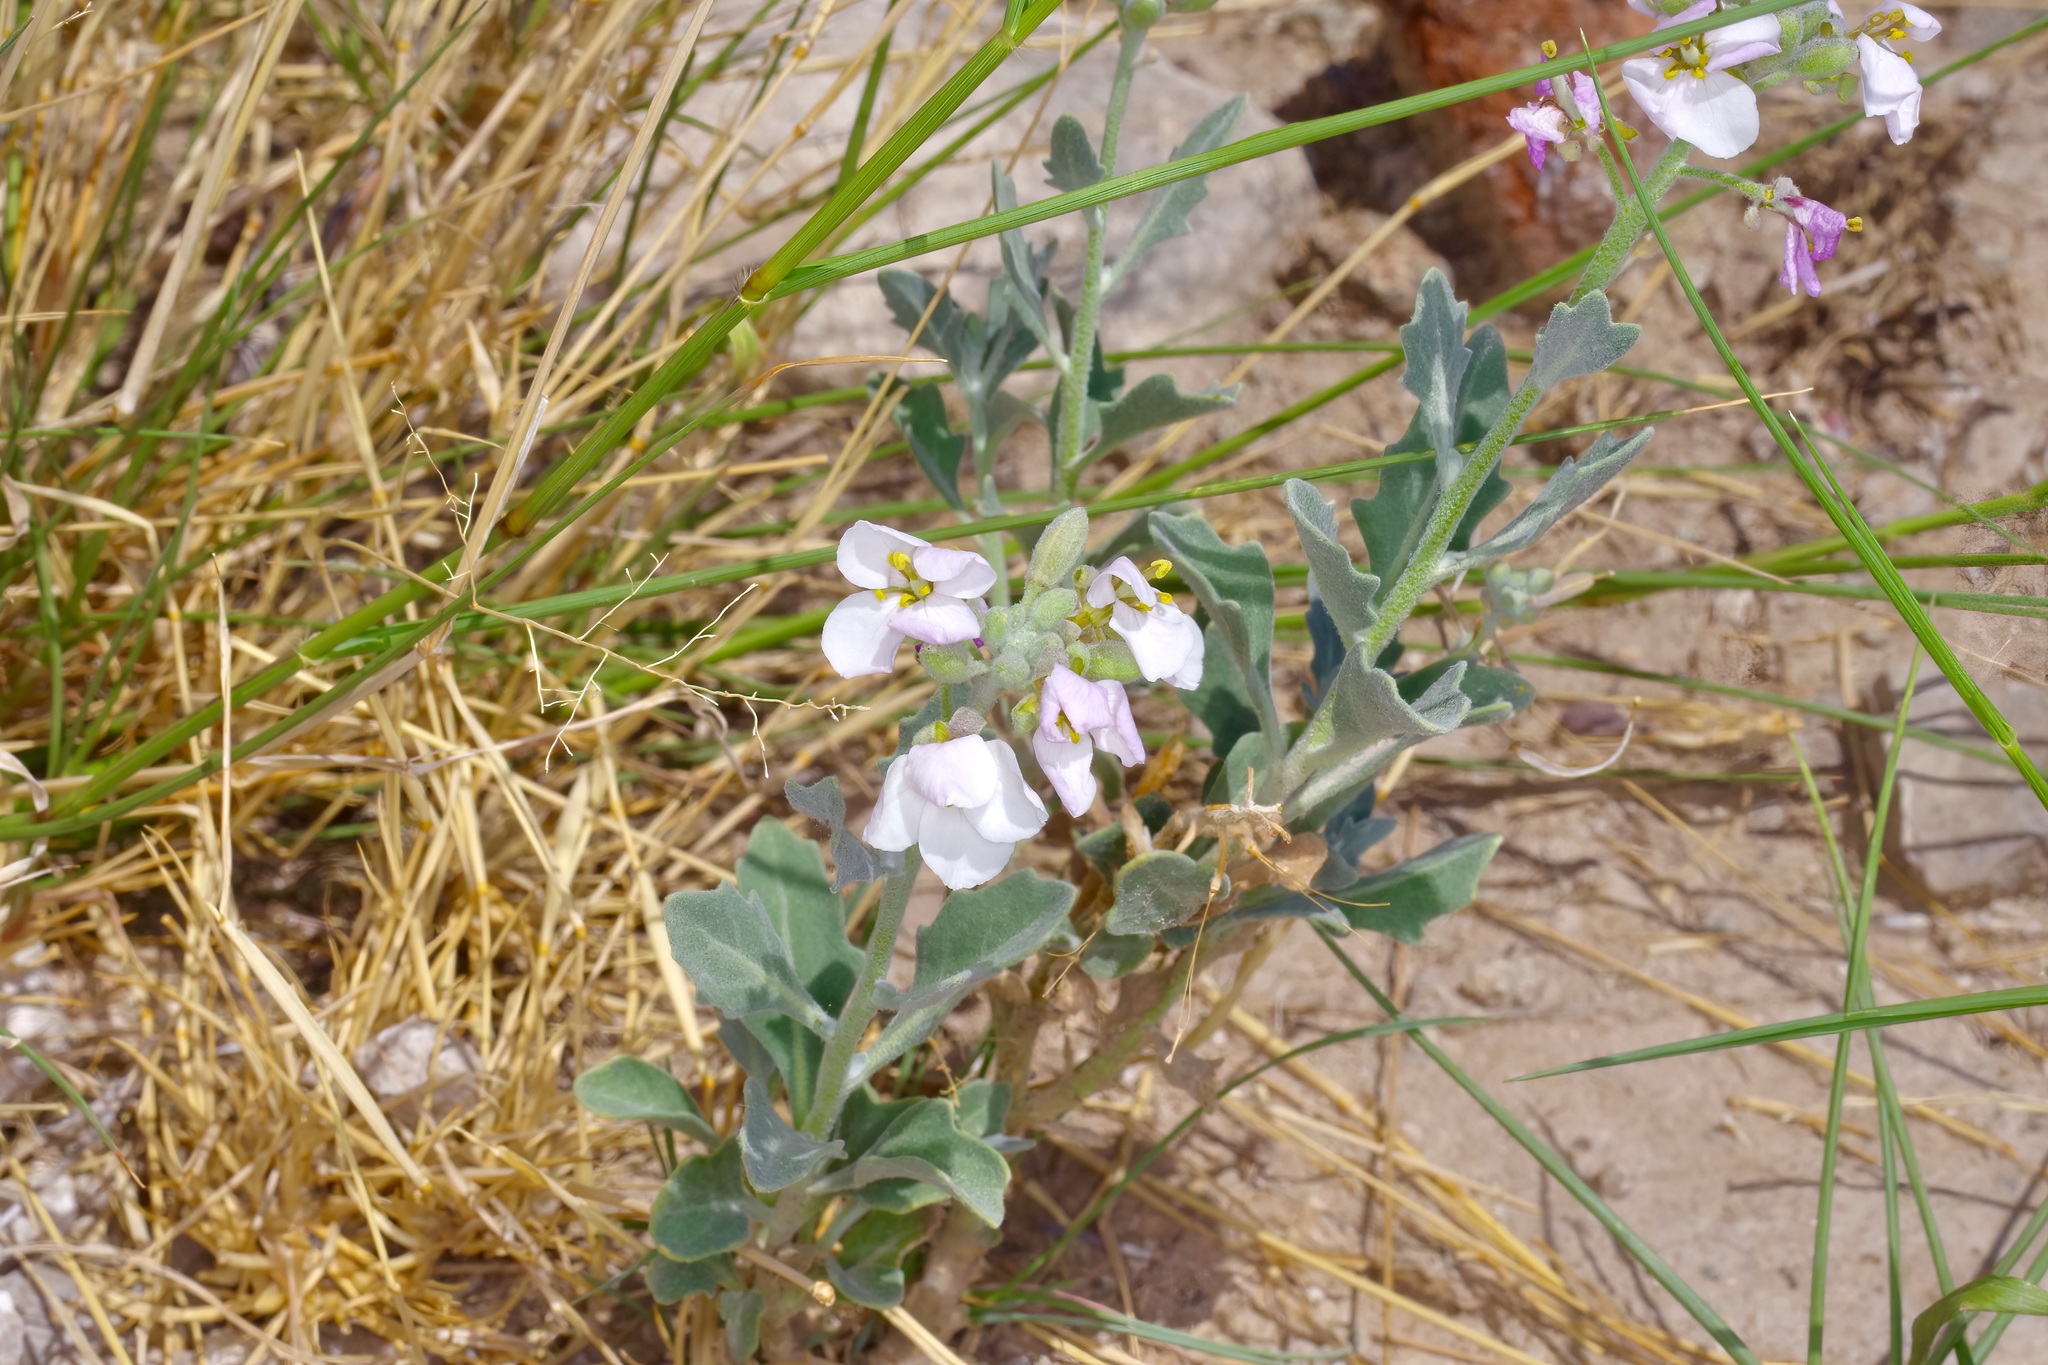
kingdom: Plantae
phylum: Tracheophyta
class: Magnoliopsida
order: Brassicales
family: Brassicaceae
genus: Nerisyrenia
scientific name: Nerisyrenia camporum
